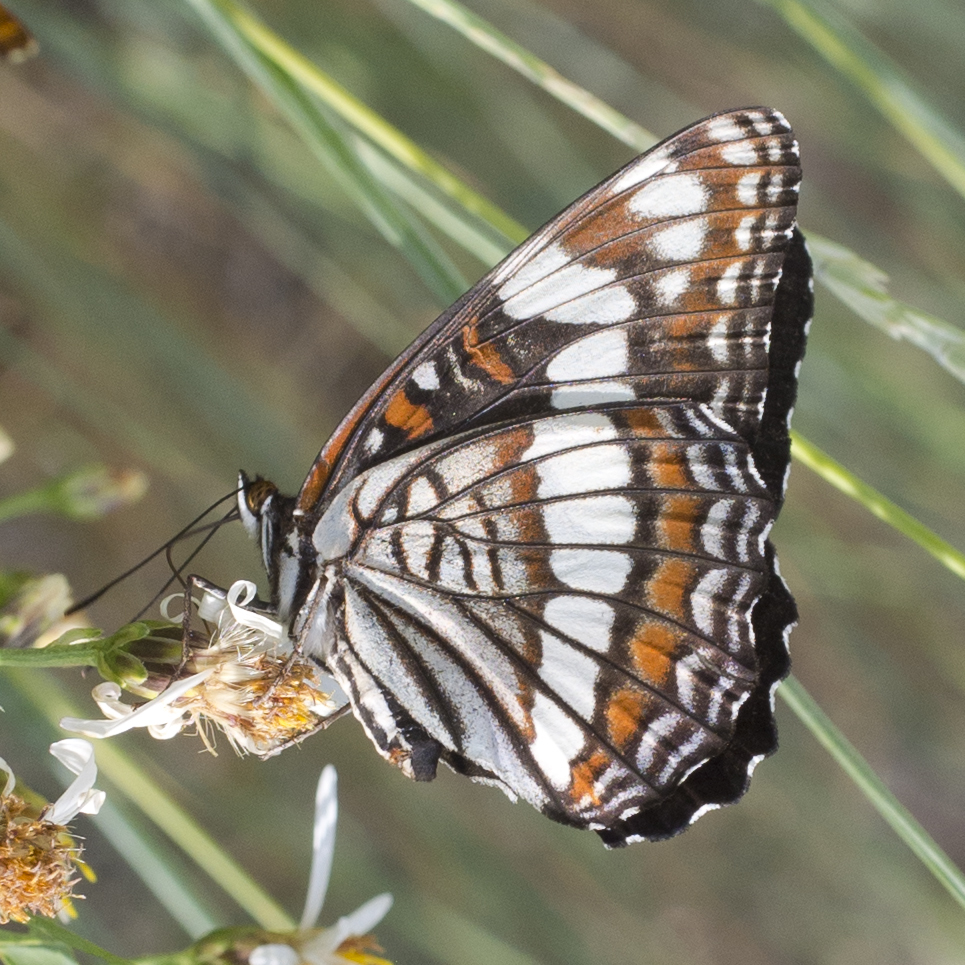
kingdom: Animalia
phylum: Arthropoda
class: Insecta
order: Lepidoptera
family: Nymphalidae
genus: Limenitis
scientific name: Limenitis weidemeyerii
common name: Weidemeyer's admiral
